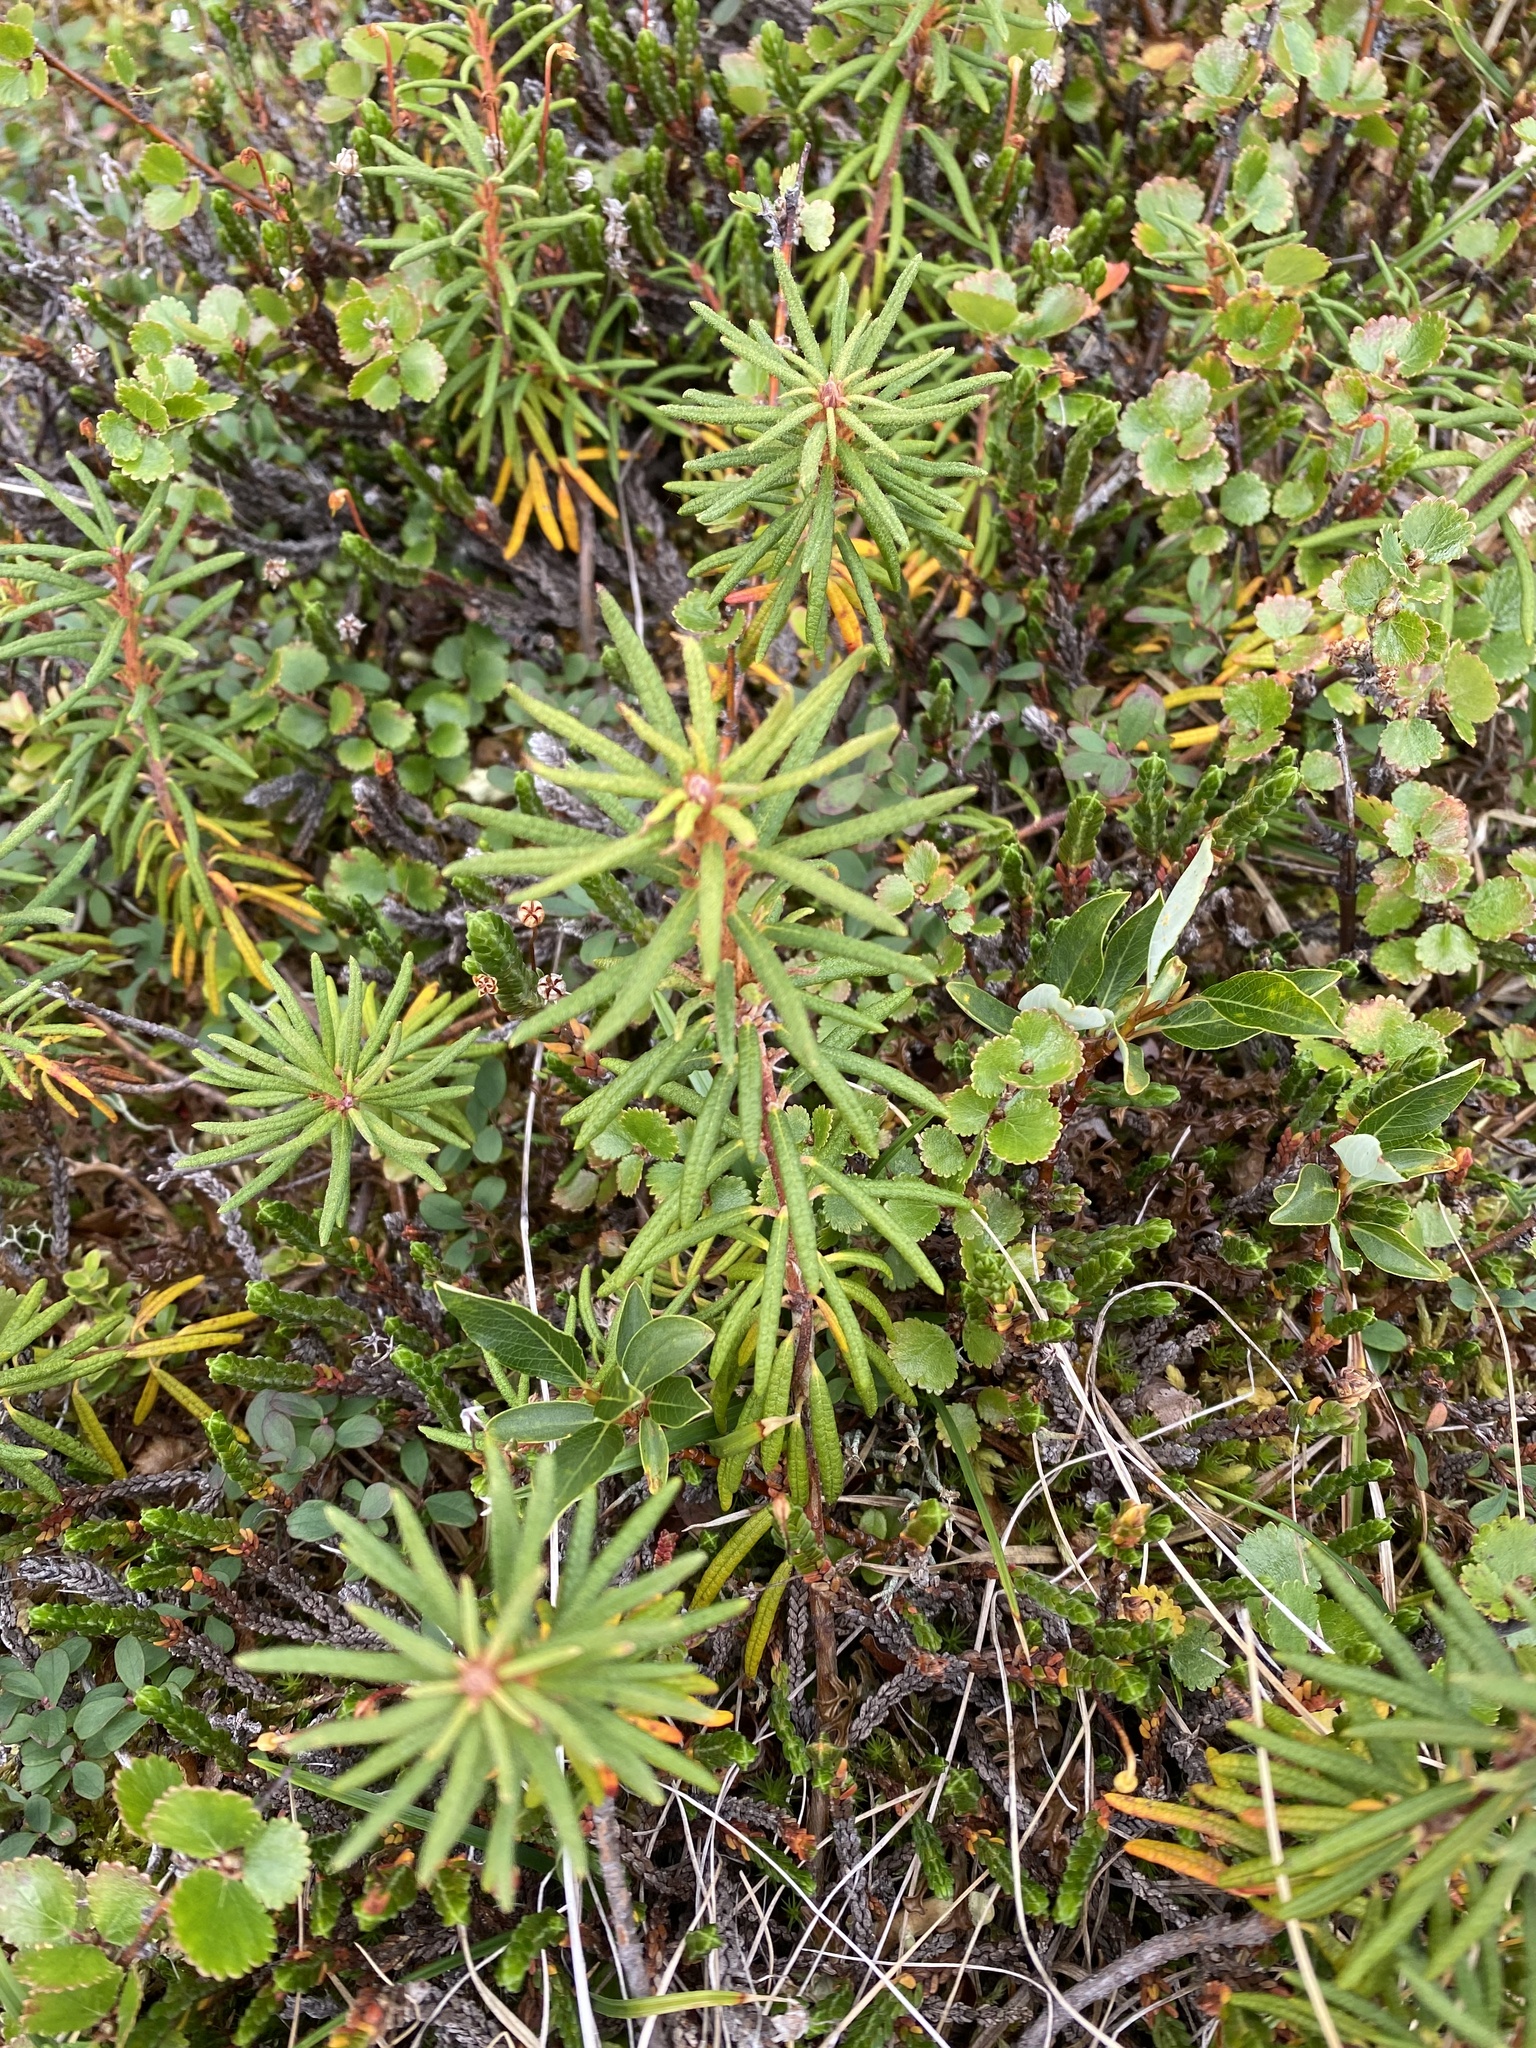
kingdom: Plantae
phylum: Tracheophyta
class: Magnoliopsida
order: Ericales
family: Ericaceae
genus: Rhododendron
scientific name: Rhododendron tomentosum
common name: Marsh labrador tea
